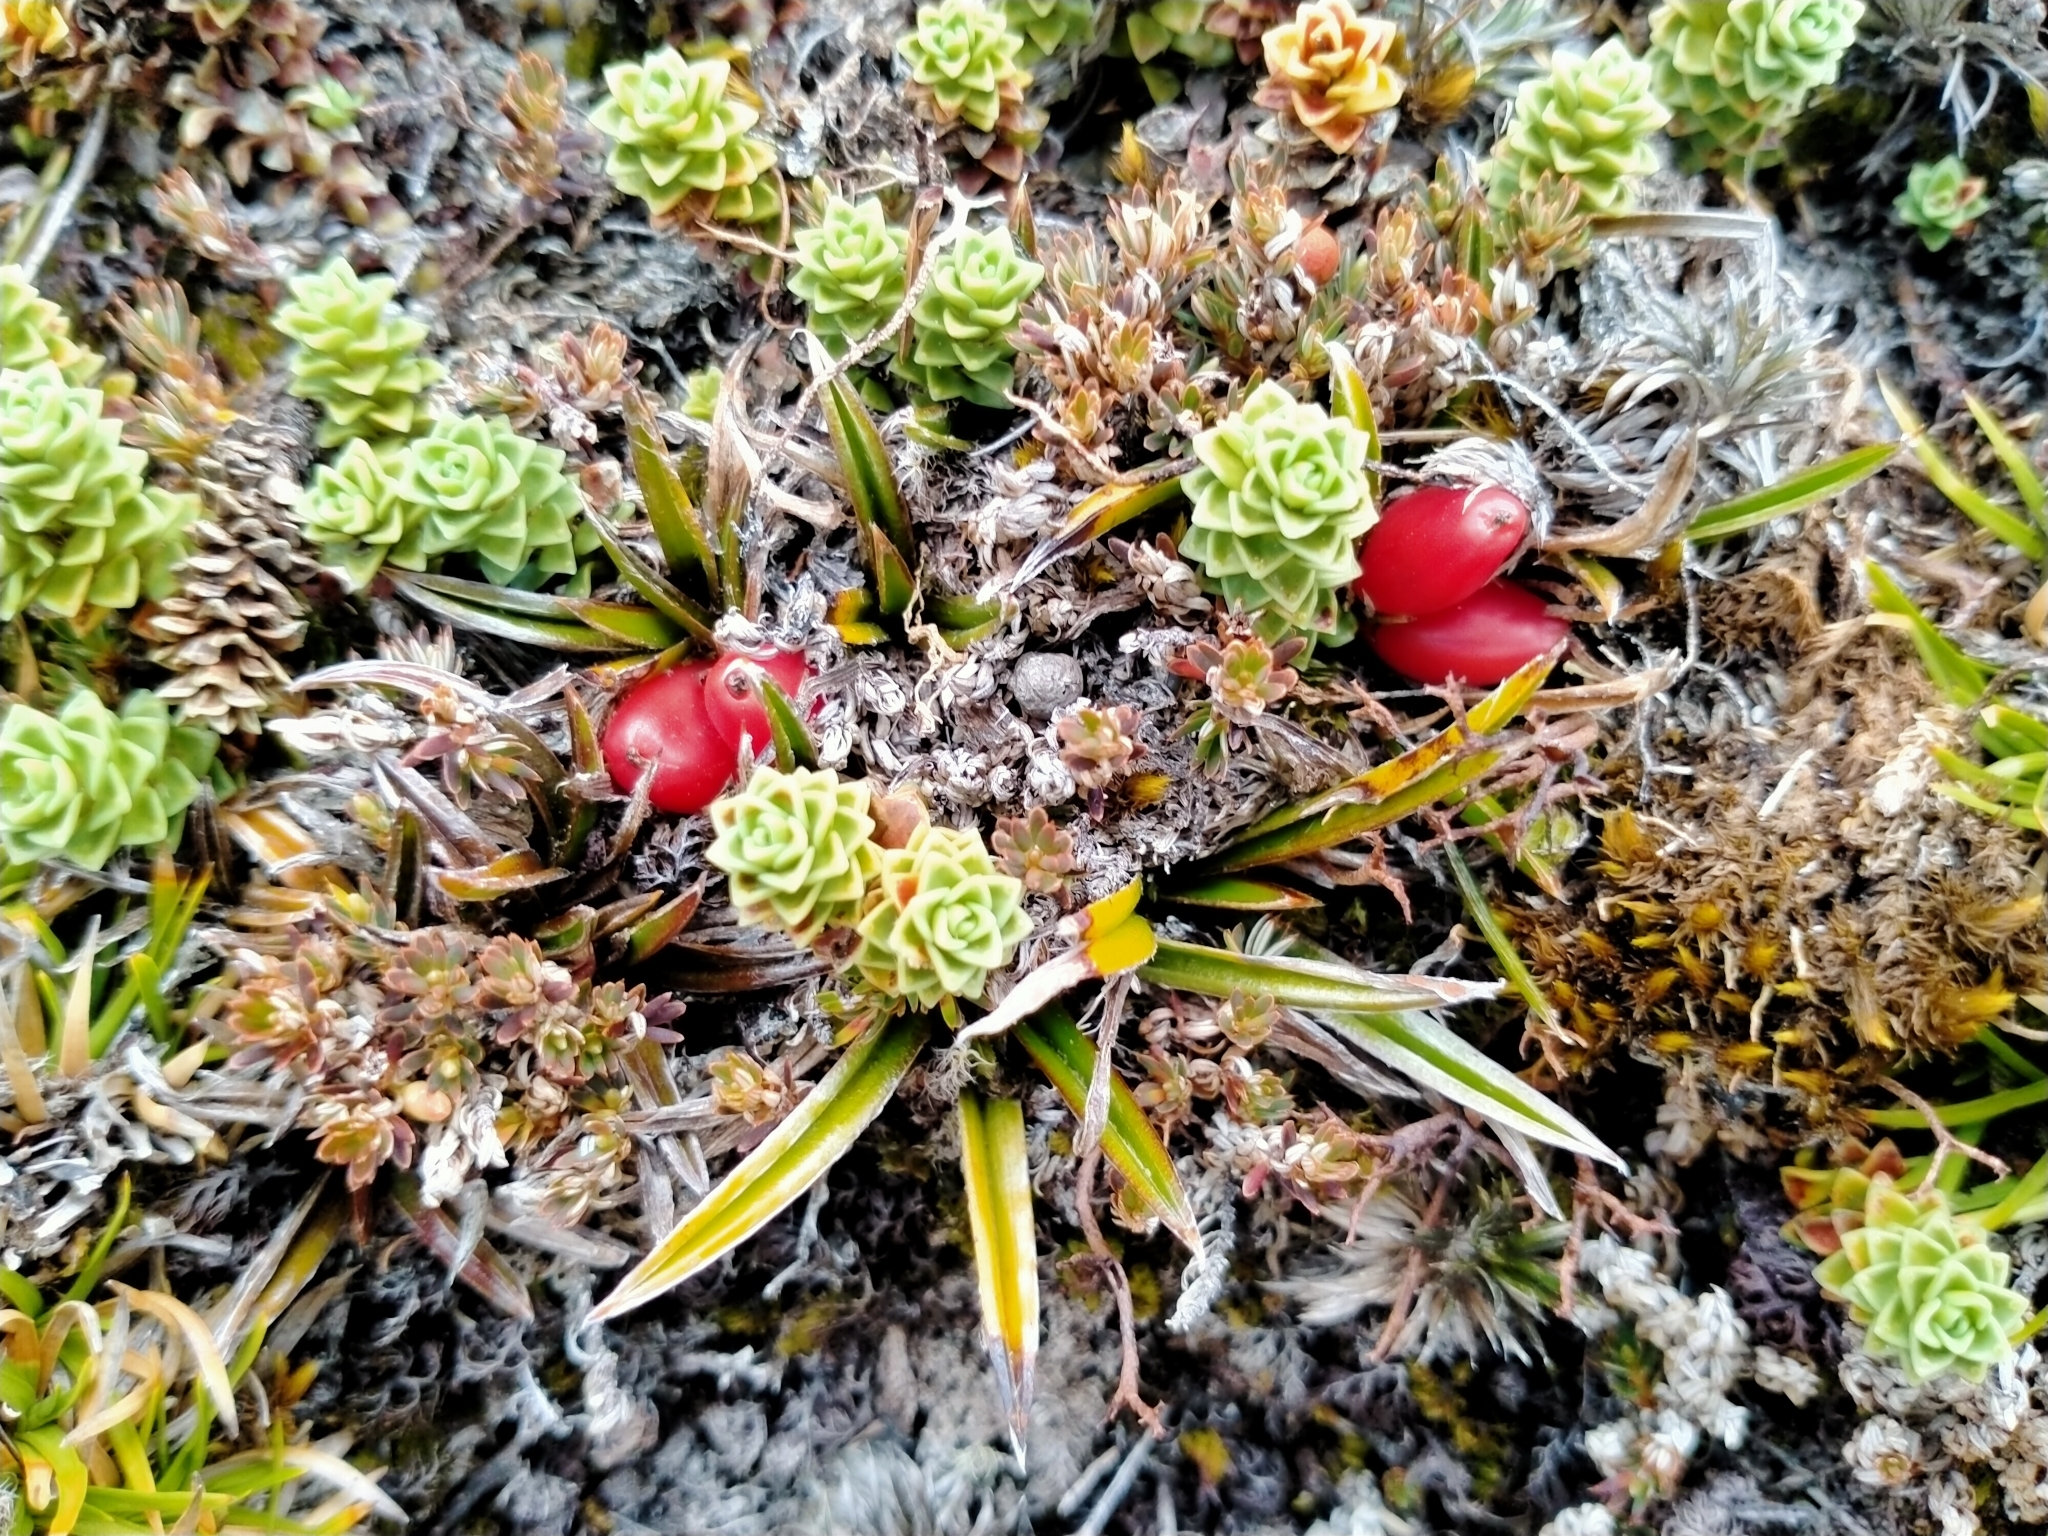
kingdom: Plantae
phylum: Tracheophyta
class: Liliopsida
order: Asparagales
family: Asteliaceae
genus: Astelia
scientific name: Astelia linearis
